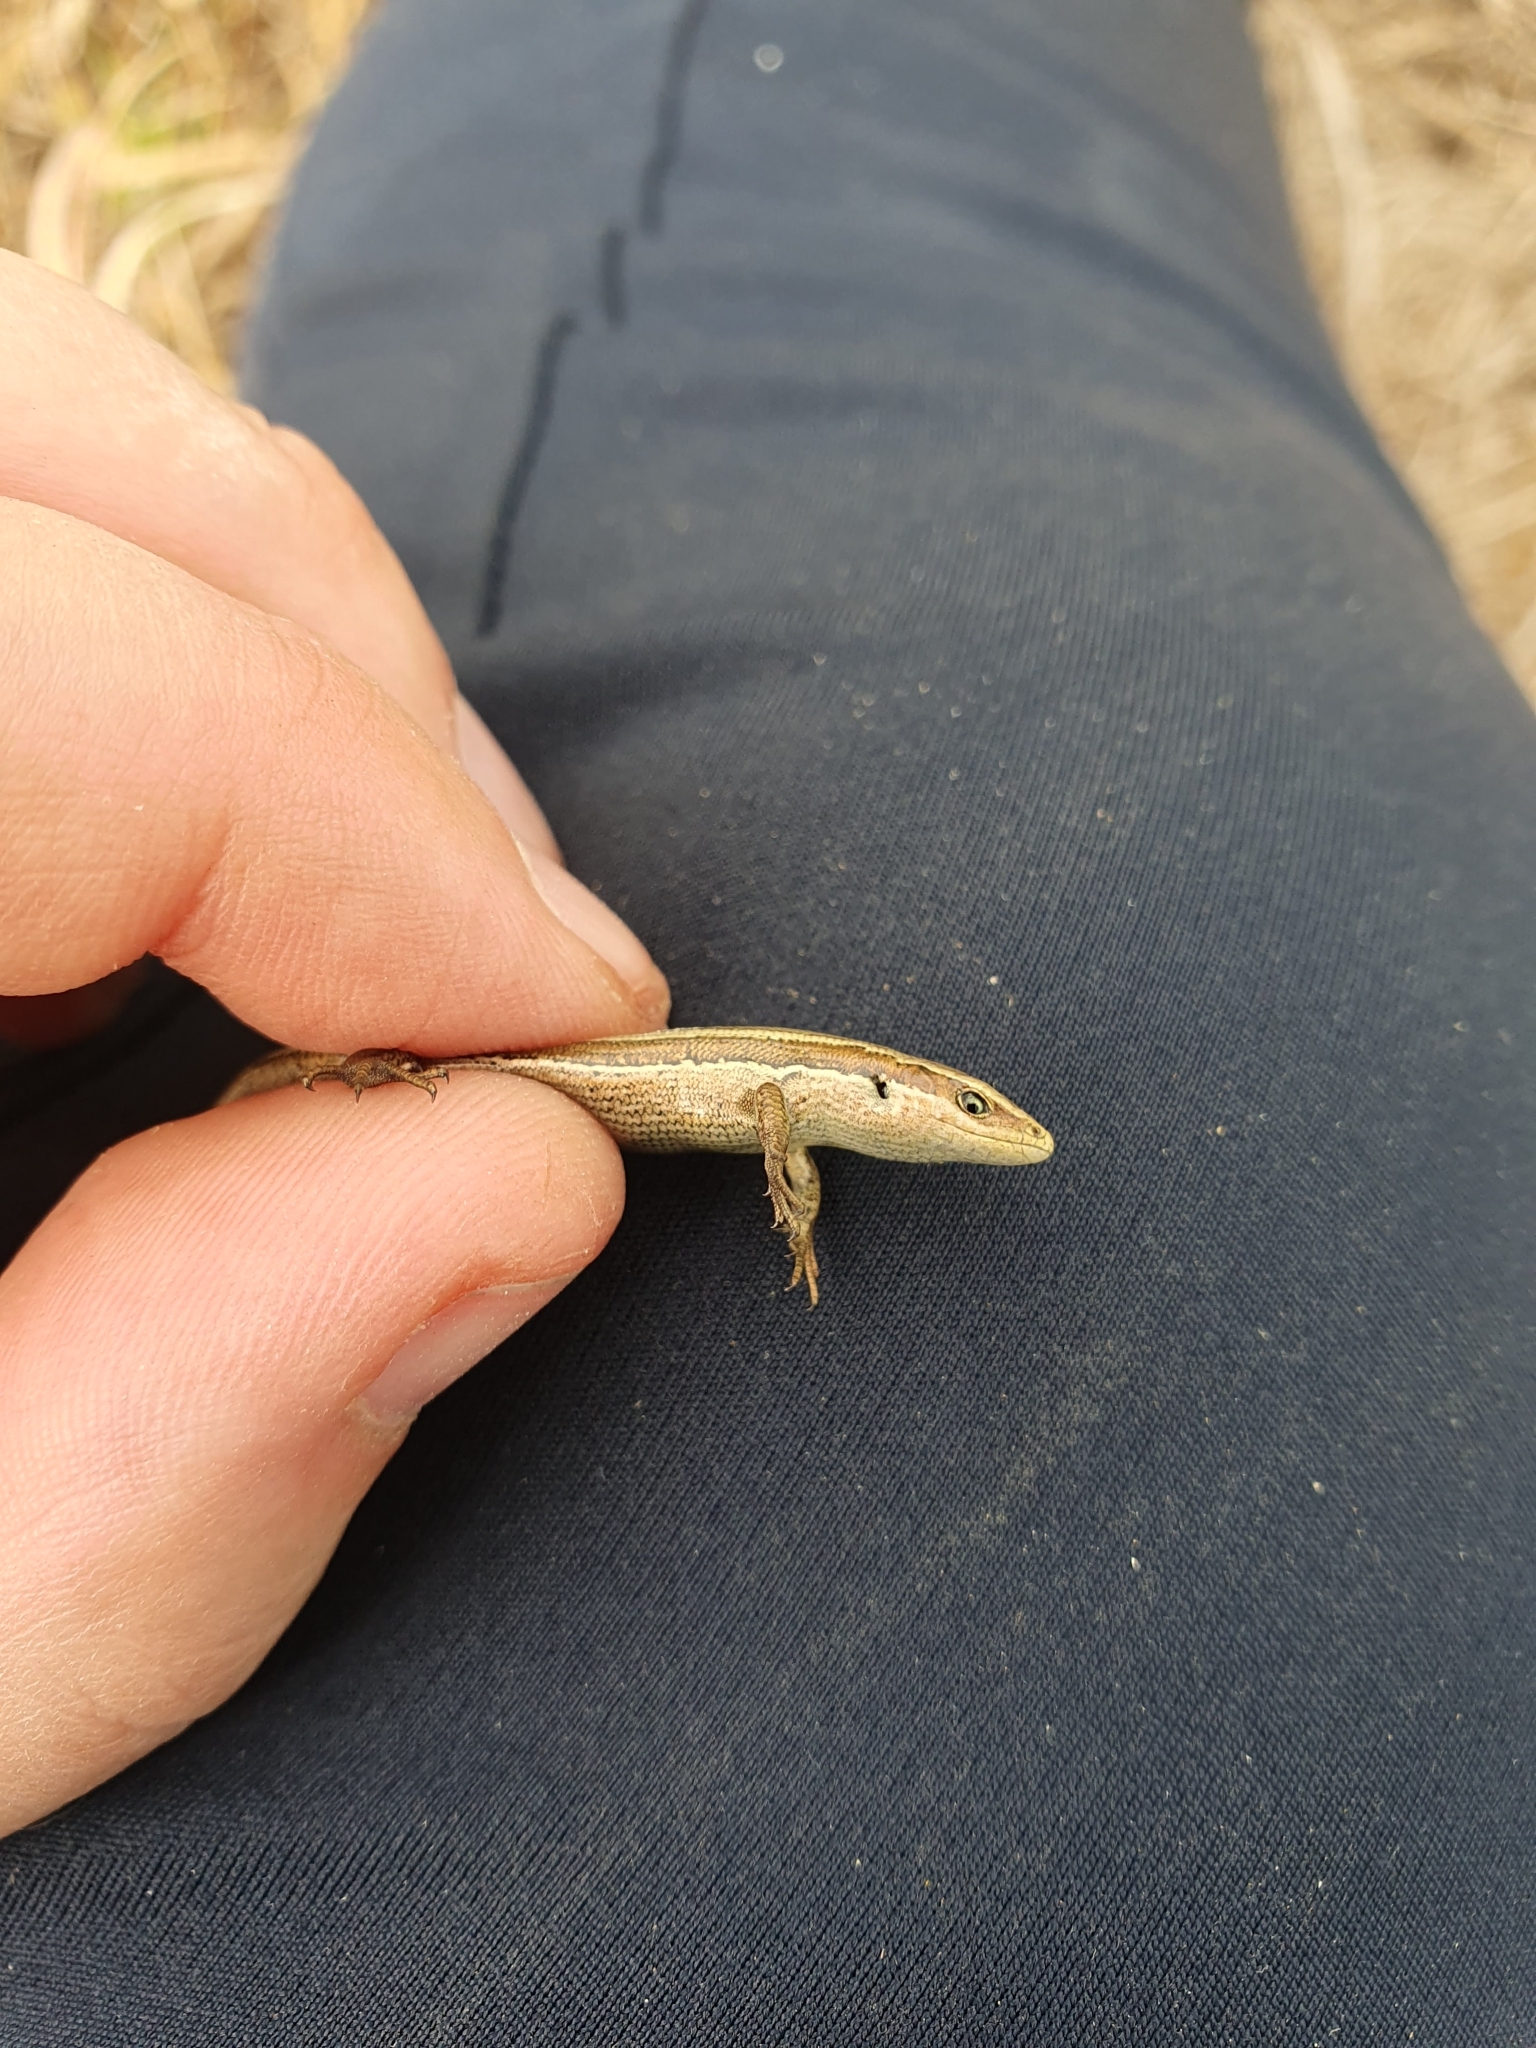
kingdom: Animalia
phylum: Chordata
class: Squamata
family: Scincidae
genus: Oligosoma
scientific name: Oligosoma polychroma
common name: Common new zealand skink
